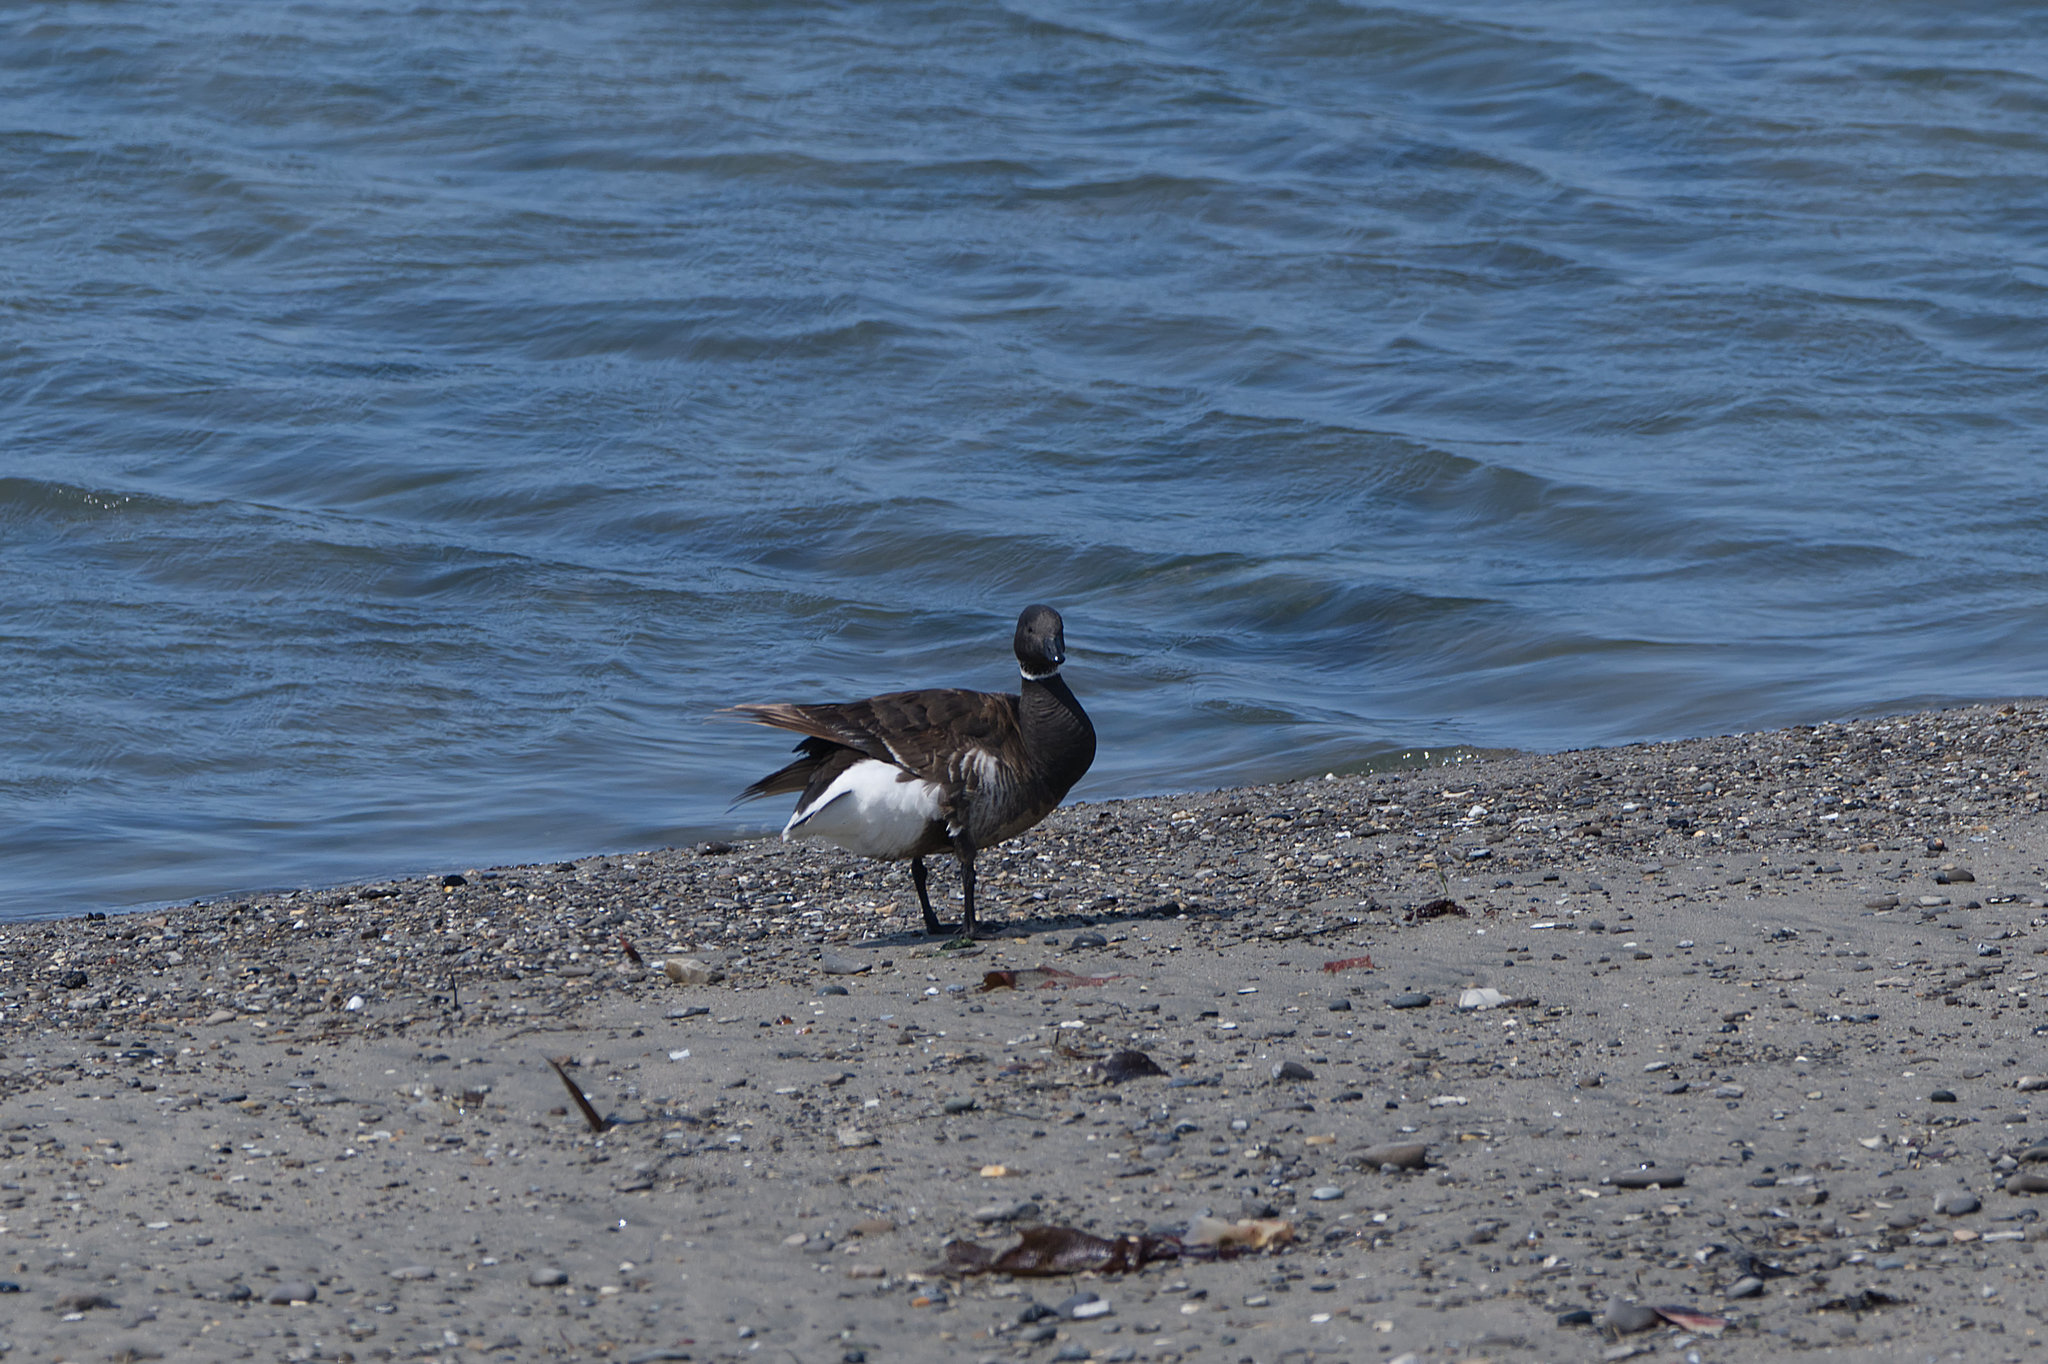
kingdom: Animalia
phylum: Chordata
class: Aves
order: Anseriformes
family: Anatidae
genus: Branta
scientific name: Branta bernicla
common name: Brant goose
